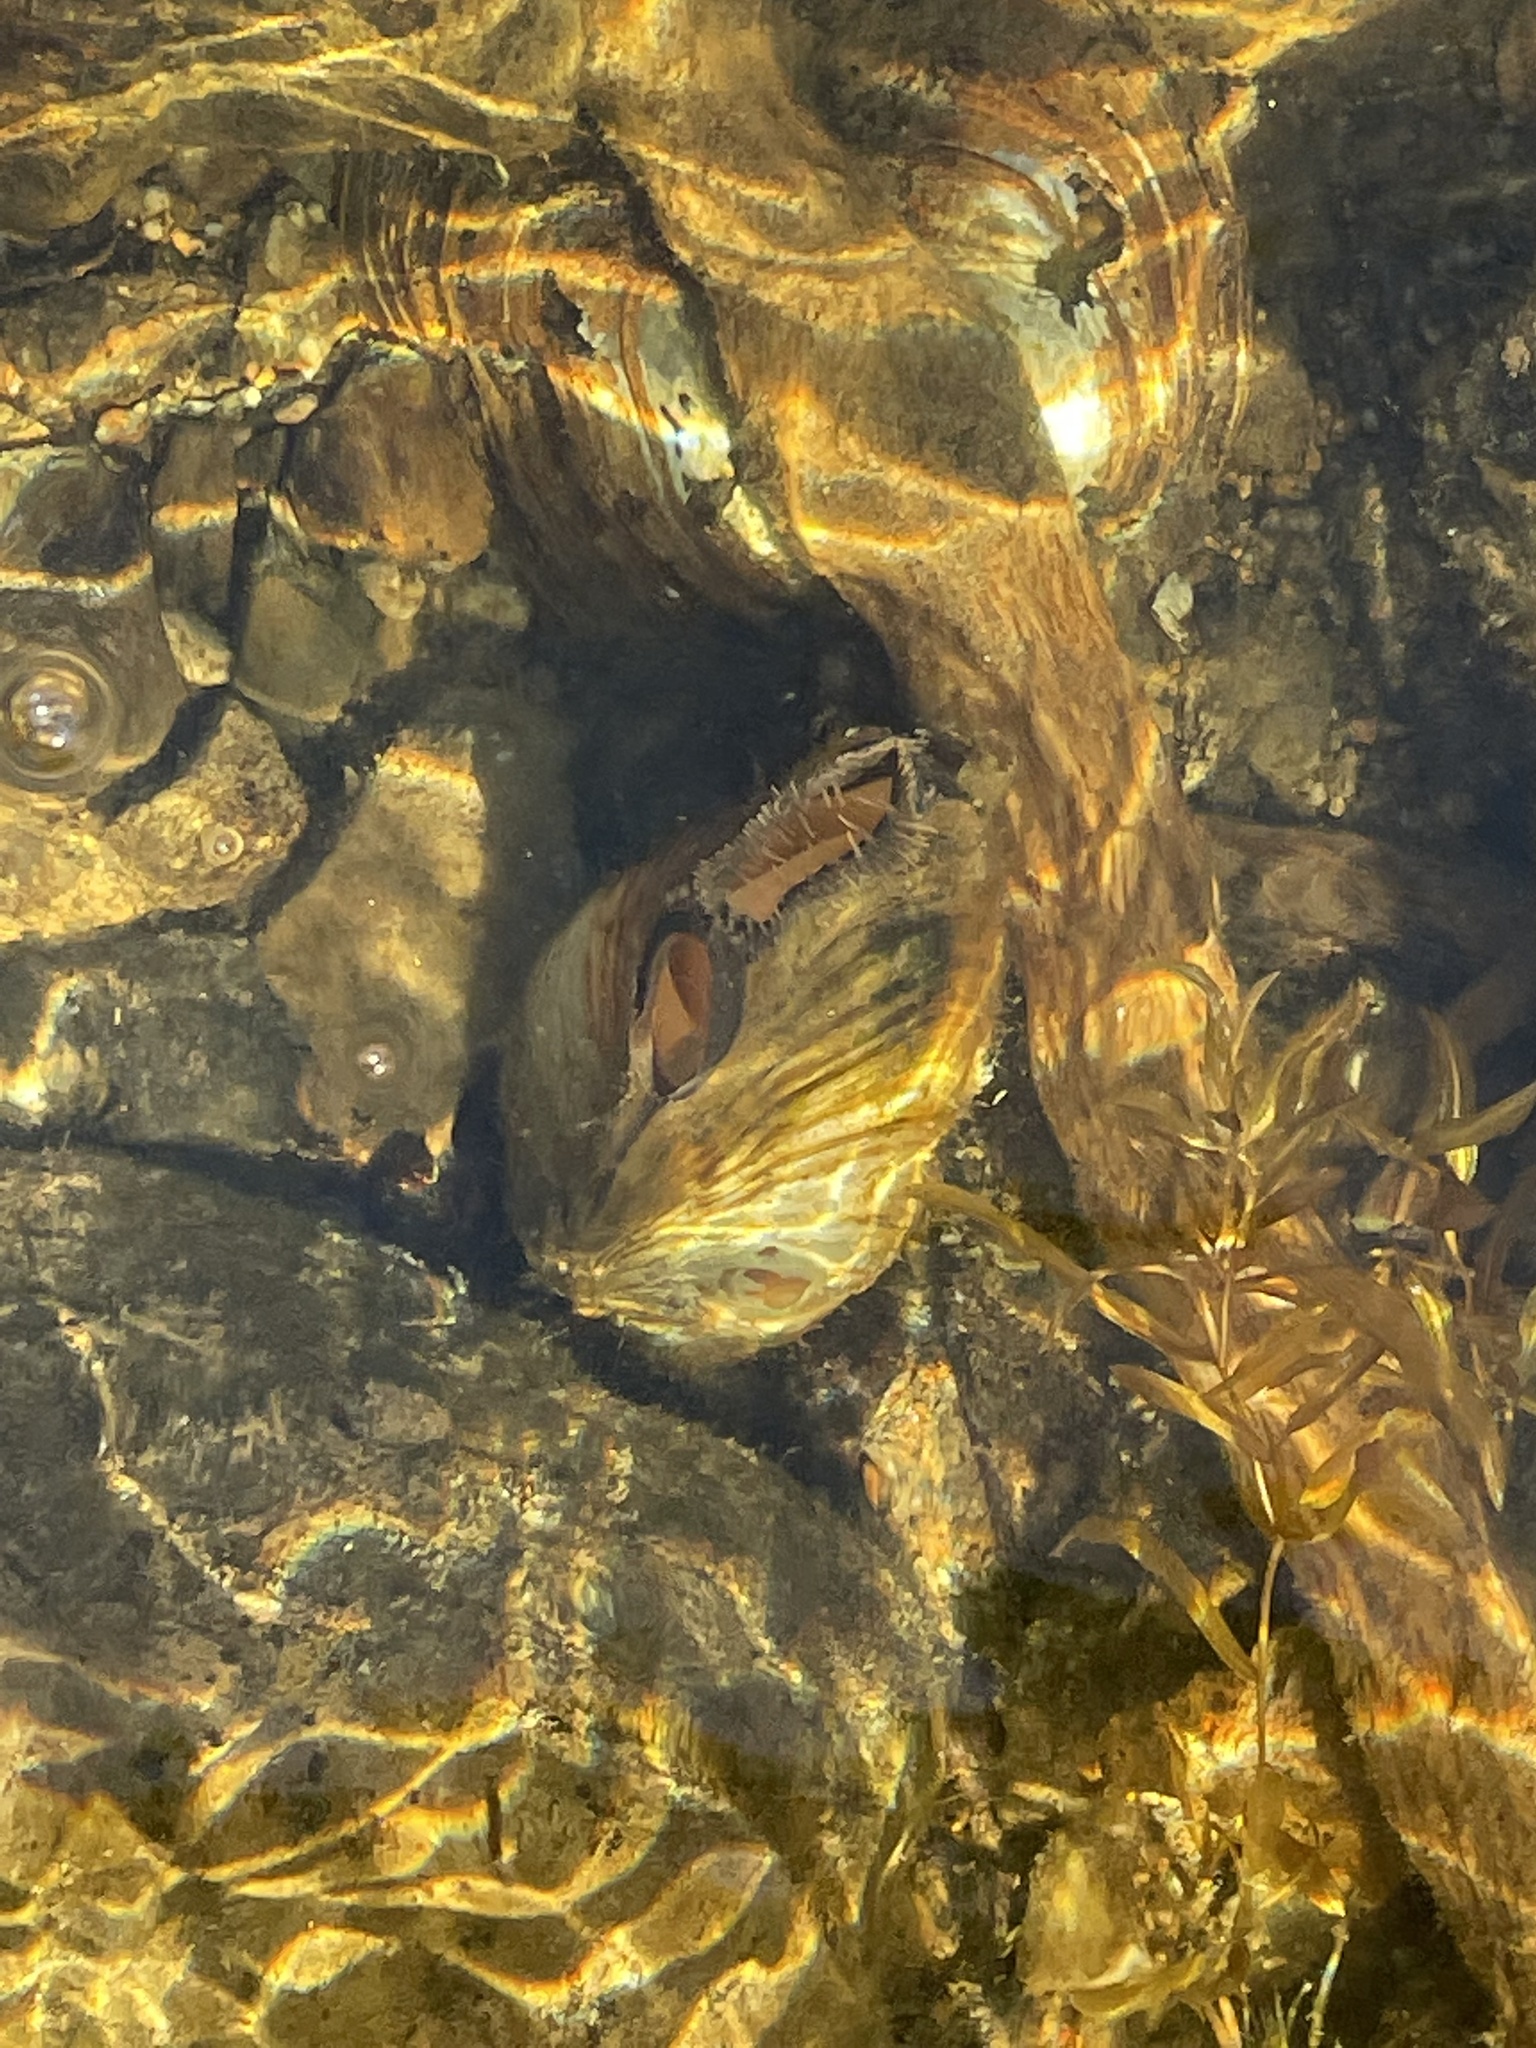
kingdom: Animalia
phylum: Mollusca
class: Bivalvia
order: Unionida
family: Unionidae
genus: Pyganodon
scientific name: Pyganodon cataracta
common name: Eastern floater
